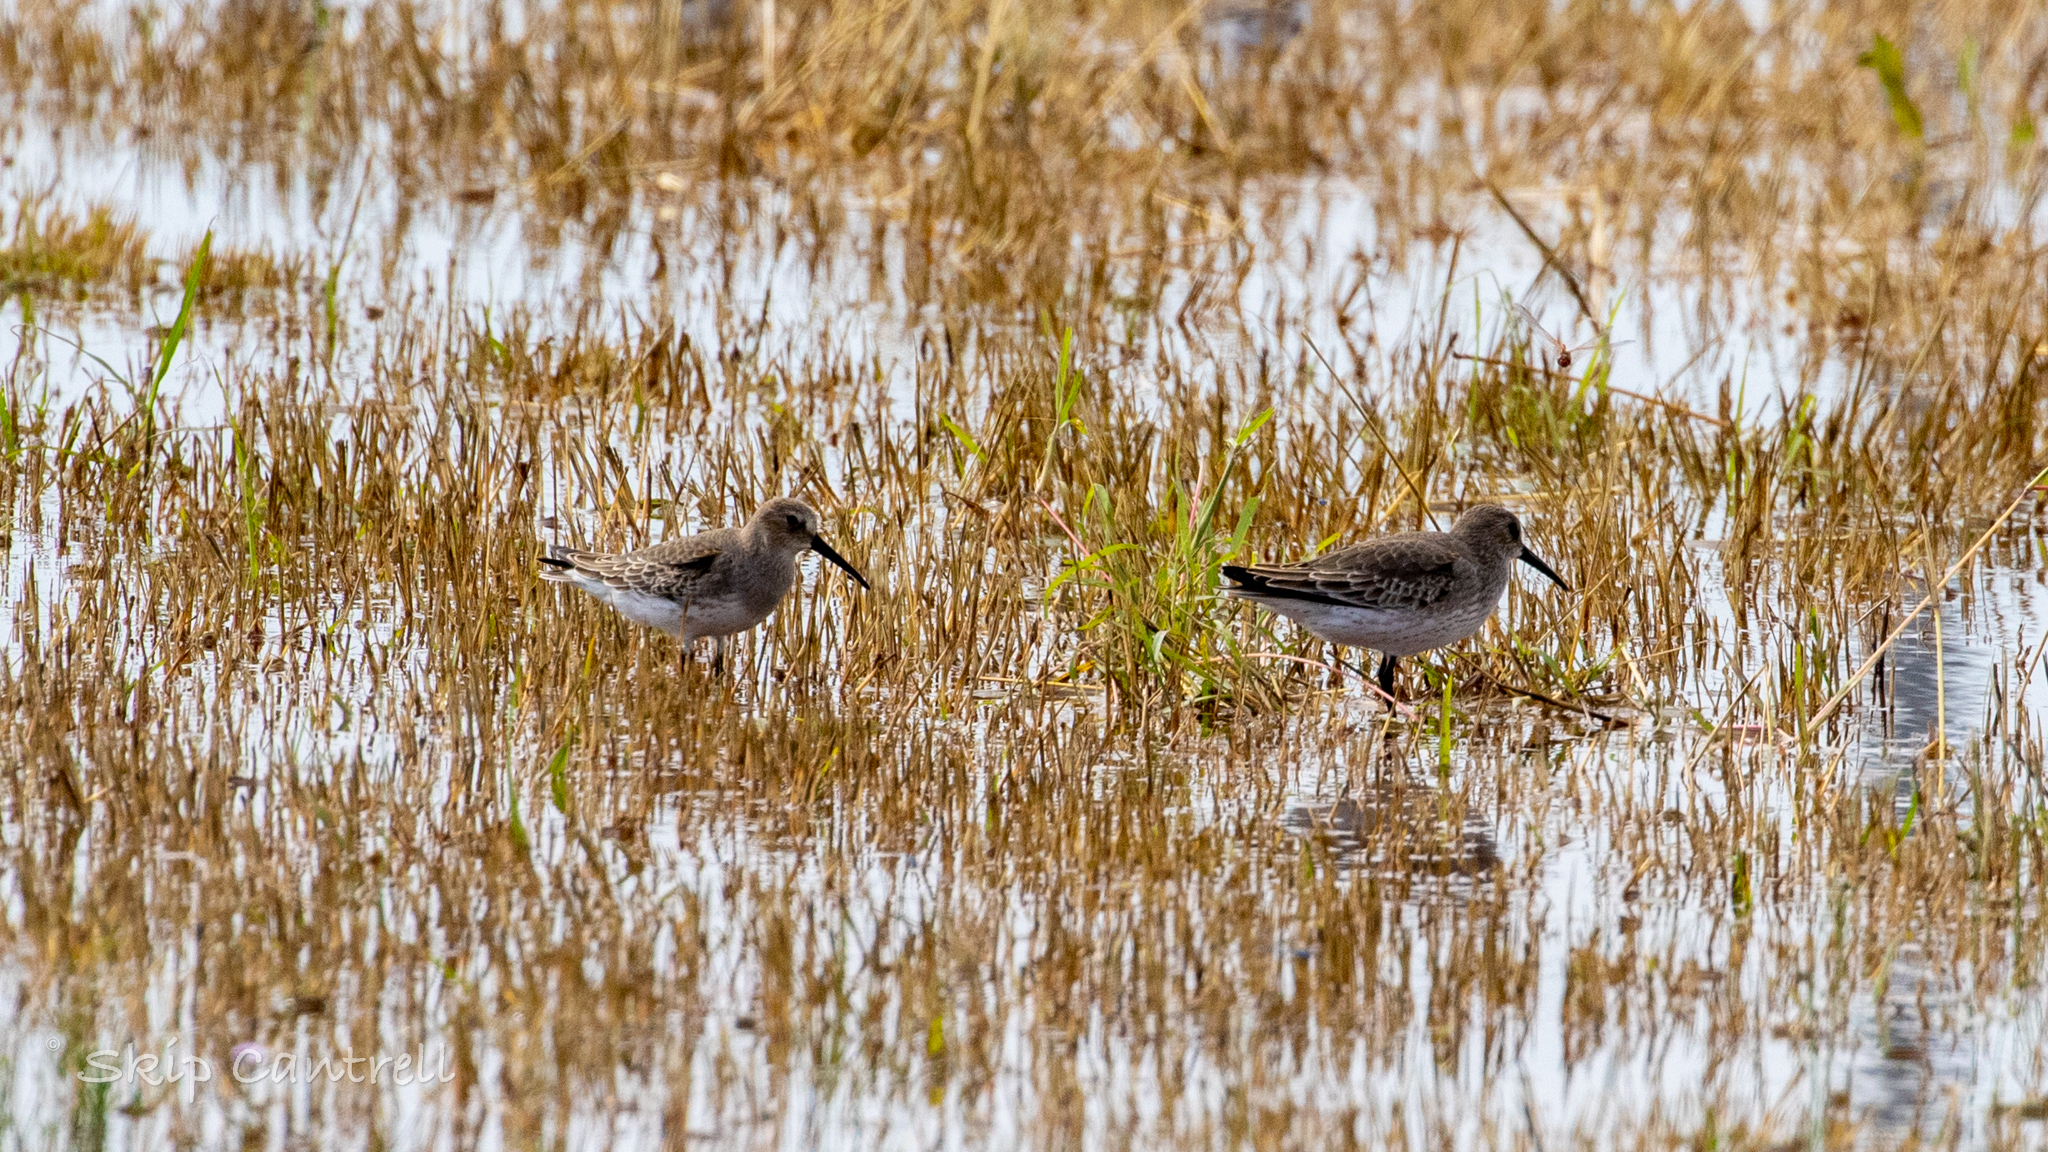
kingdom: Animalia
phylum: Chordata
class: Aves
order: Charadriiformes
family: Scolopacidae
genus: Calidris
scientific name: Calidris alpina
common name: Dunlin
